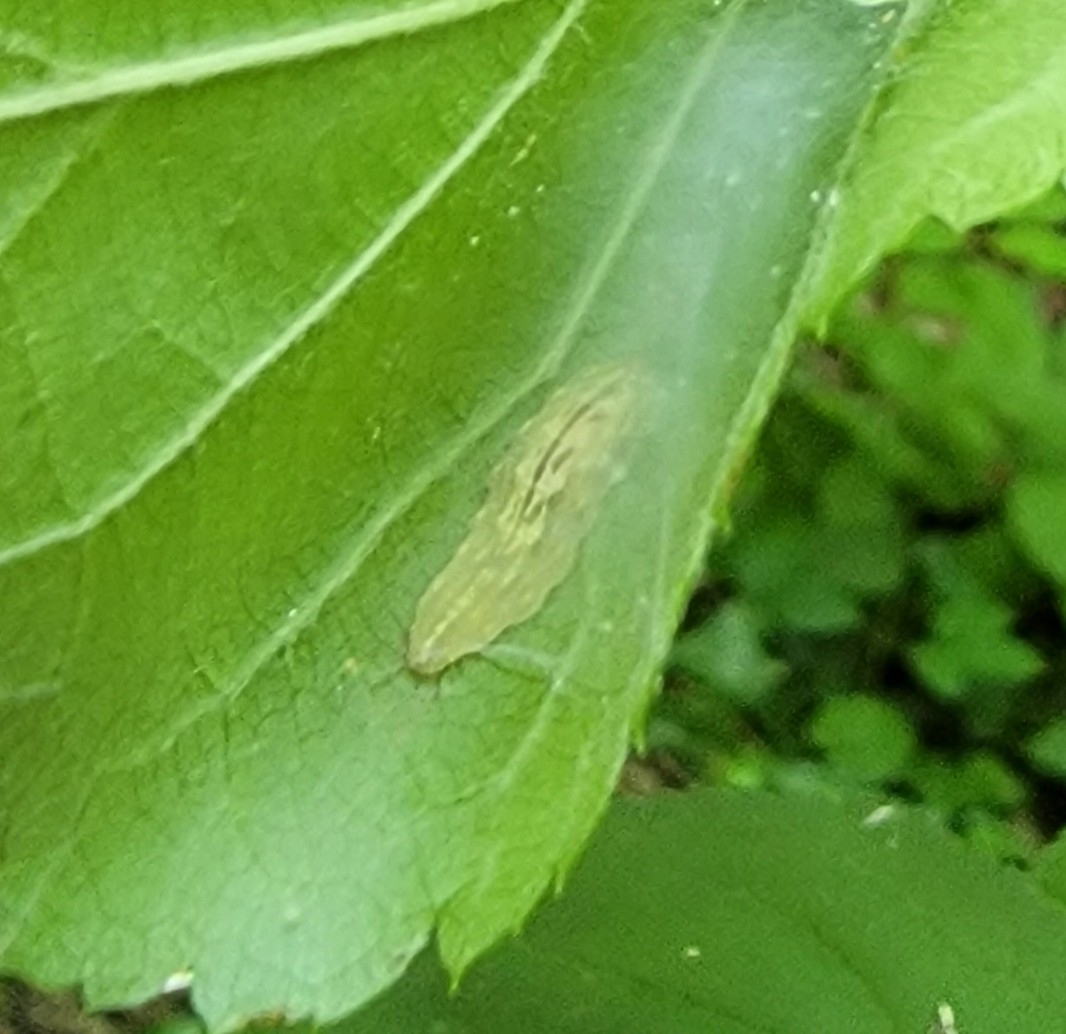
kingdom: Animalia
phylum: Arthropoda
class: Insecta
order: Diptera
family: Syrphidae
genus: Syrphus
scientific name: Syrphus
